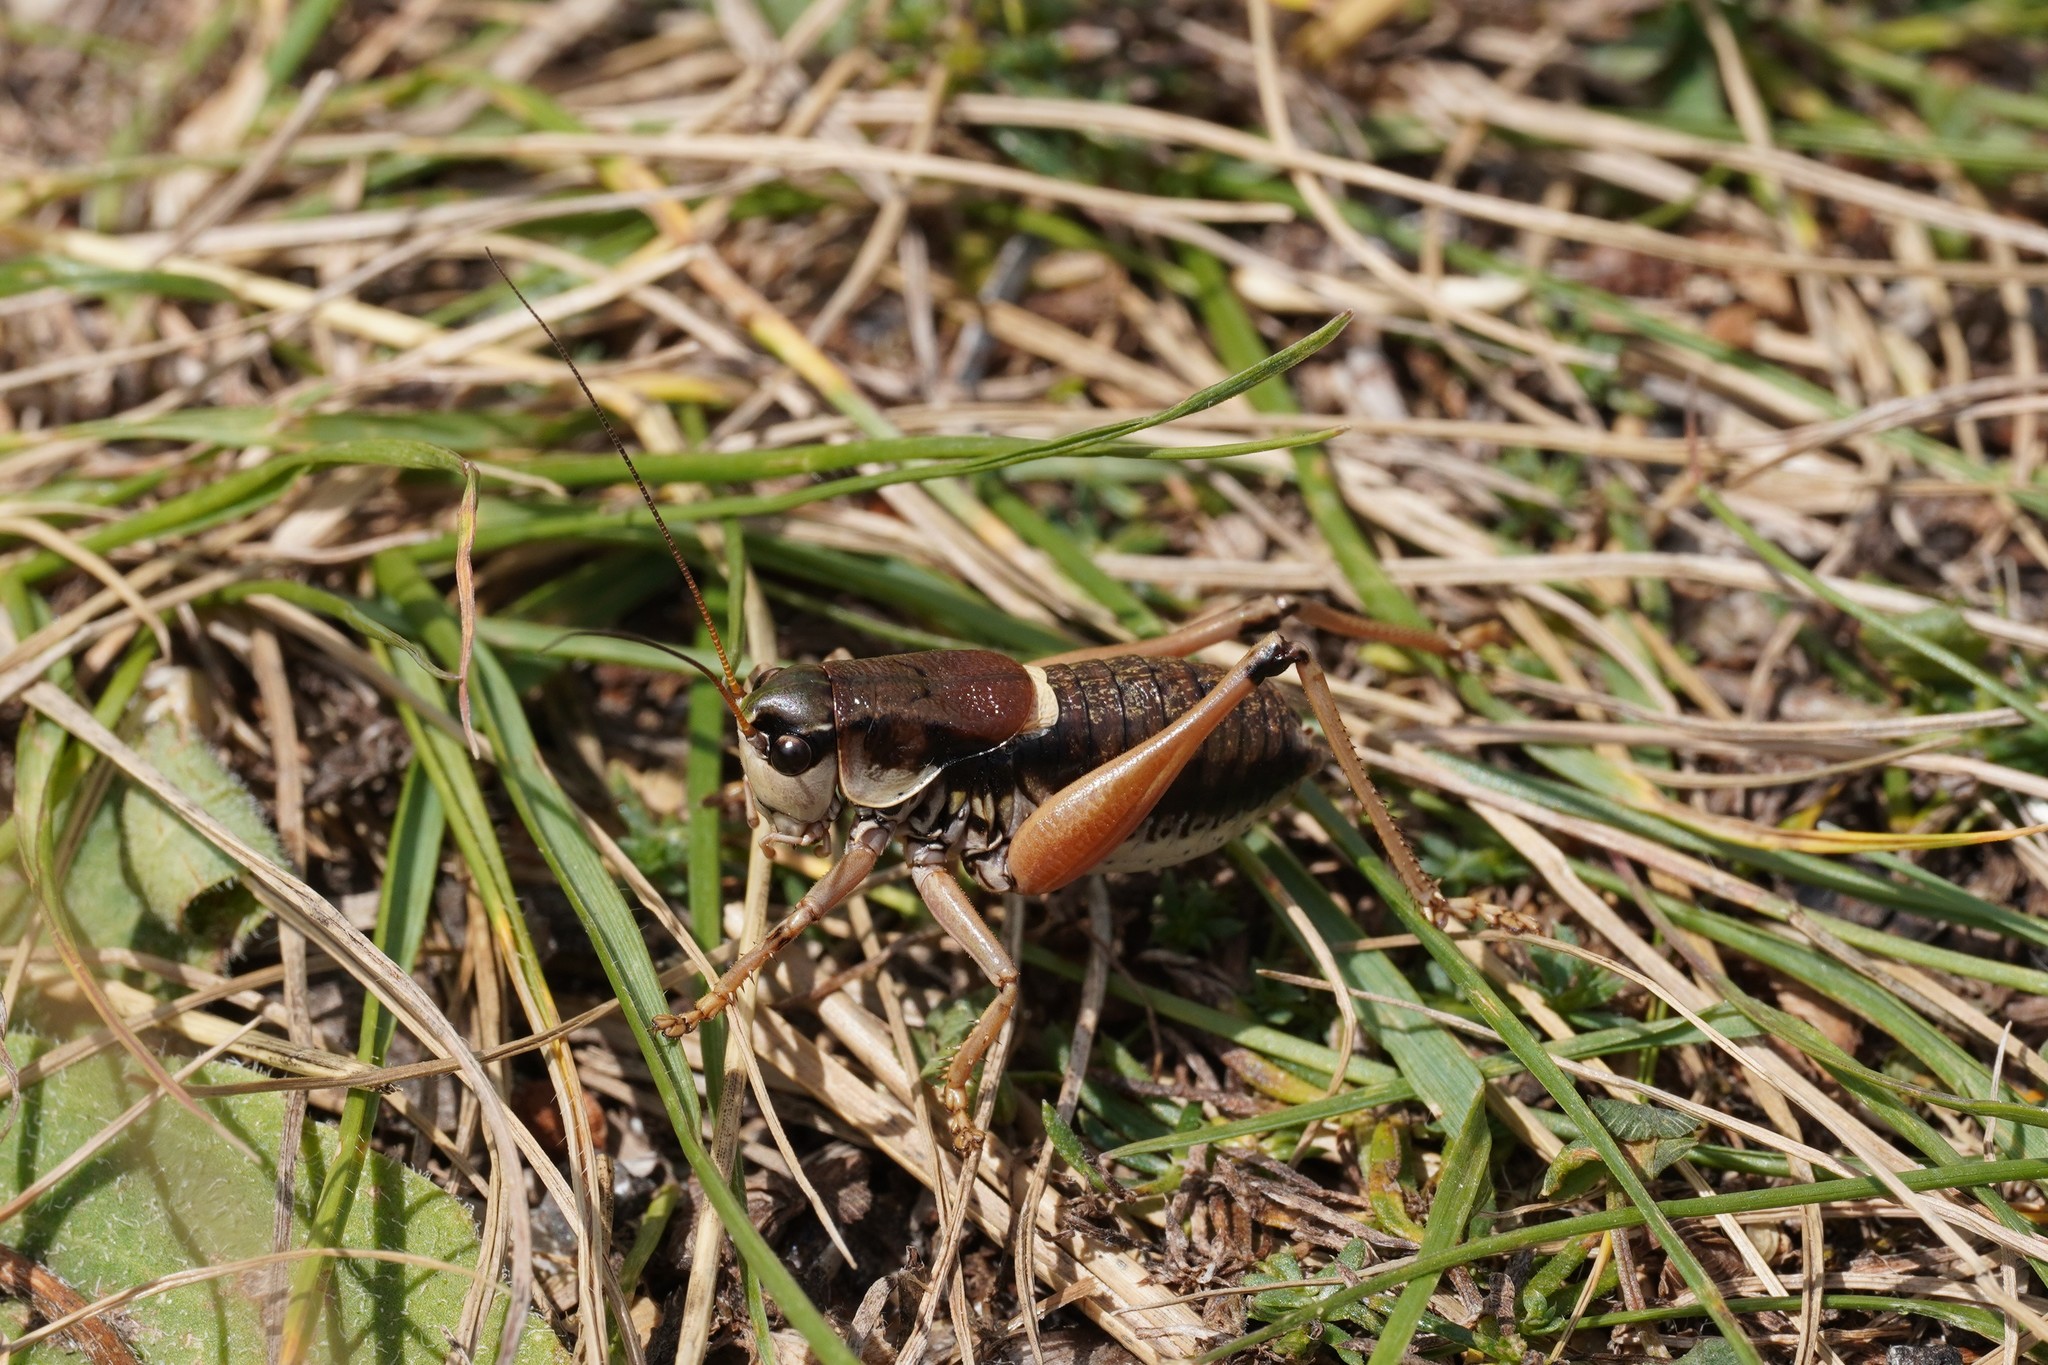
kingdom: Animalia
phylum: Arthropoda
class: Insecta
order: Orthoptera
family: Tettigoniidae
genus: Anonconotus
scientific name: Anonconotus ghilianii
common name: Ghiliani's alpine bush-cricket
